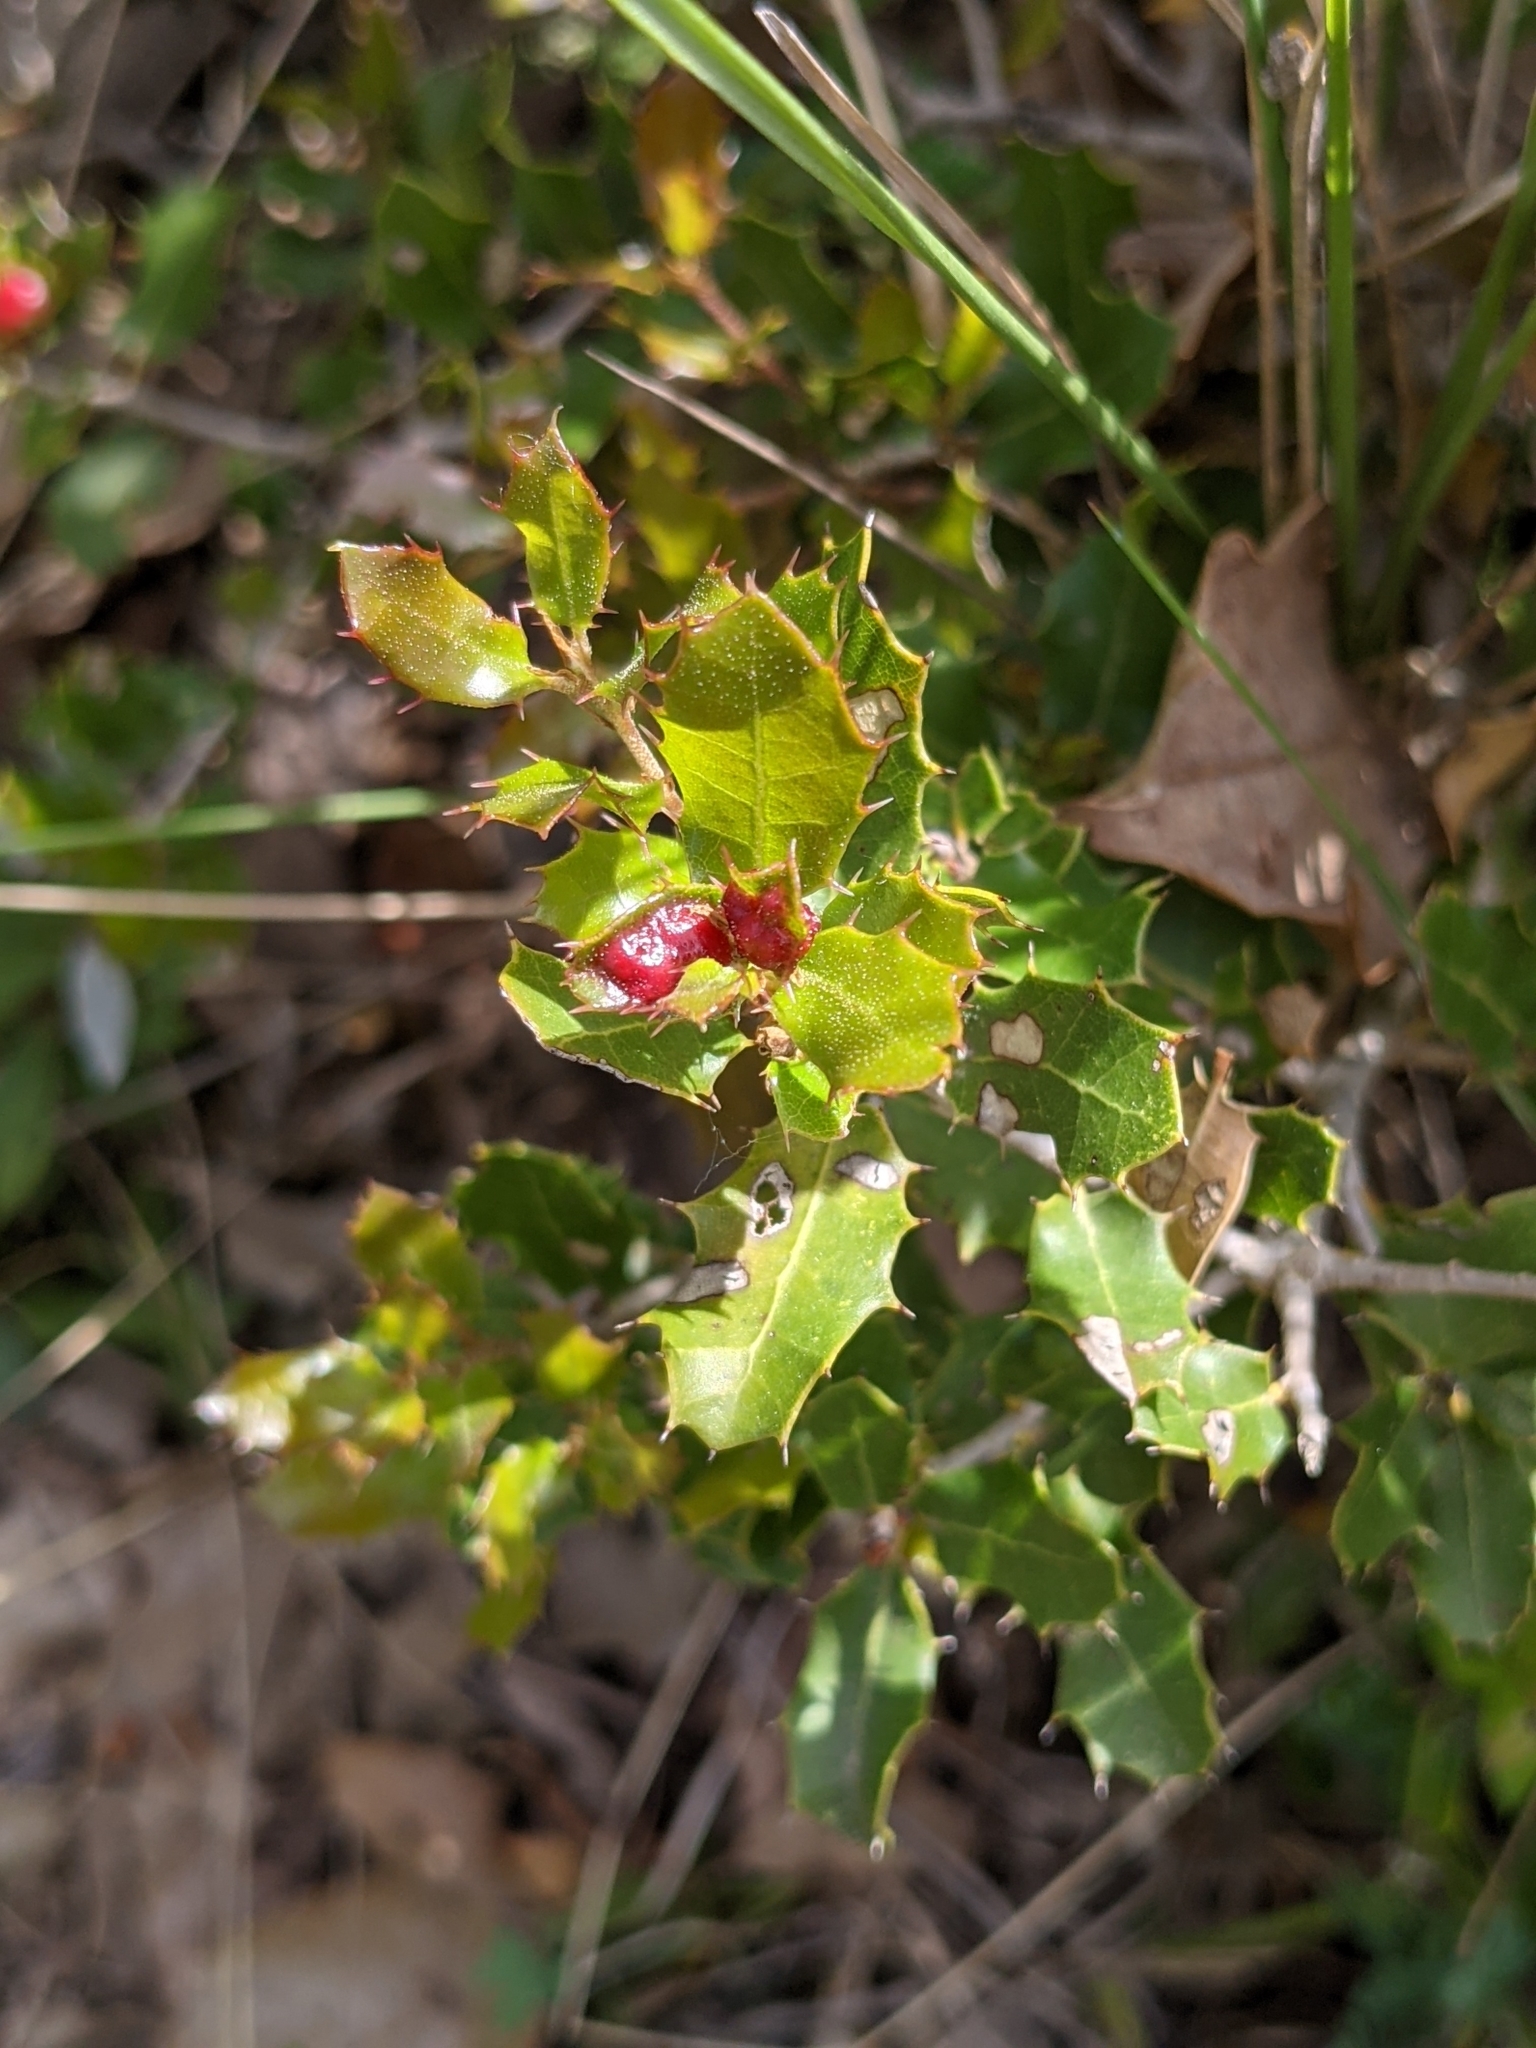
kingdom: Plantae
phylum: Tracheophyta
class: Magnoliopsida
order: Fagales
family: Fagaceae
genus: Quercus
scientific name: Quercus coccifera
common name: Kermes oak
